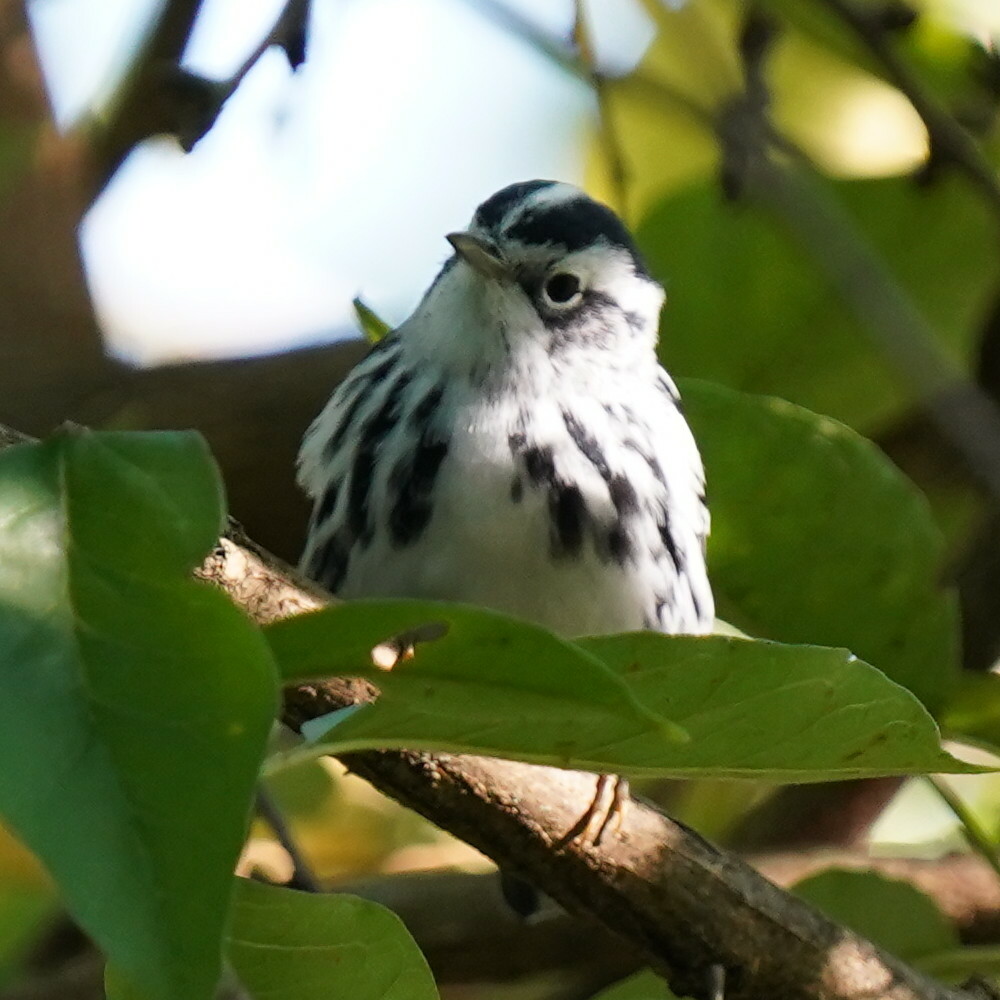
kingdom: Animalia
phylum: Chordata
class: Aves
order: Passeriformes
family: Parulidae
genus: Mniotilta
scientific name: Mniotilta varia
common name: Black-and-white warbler
